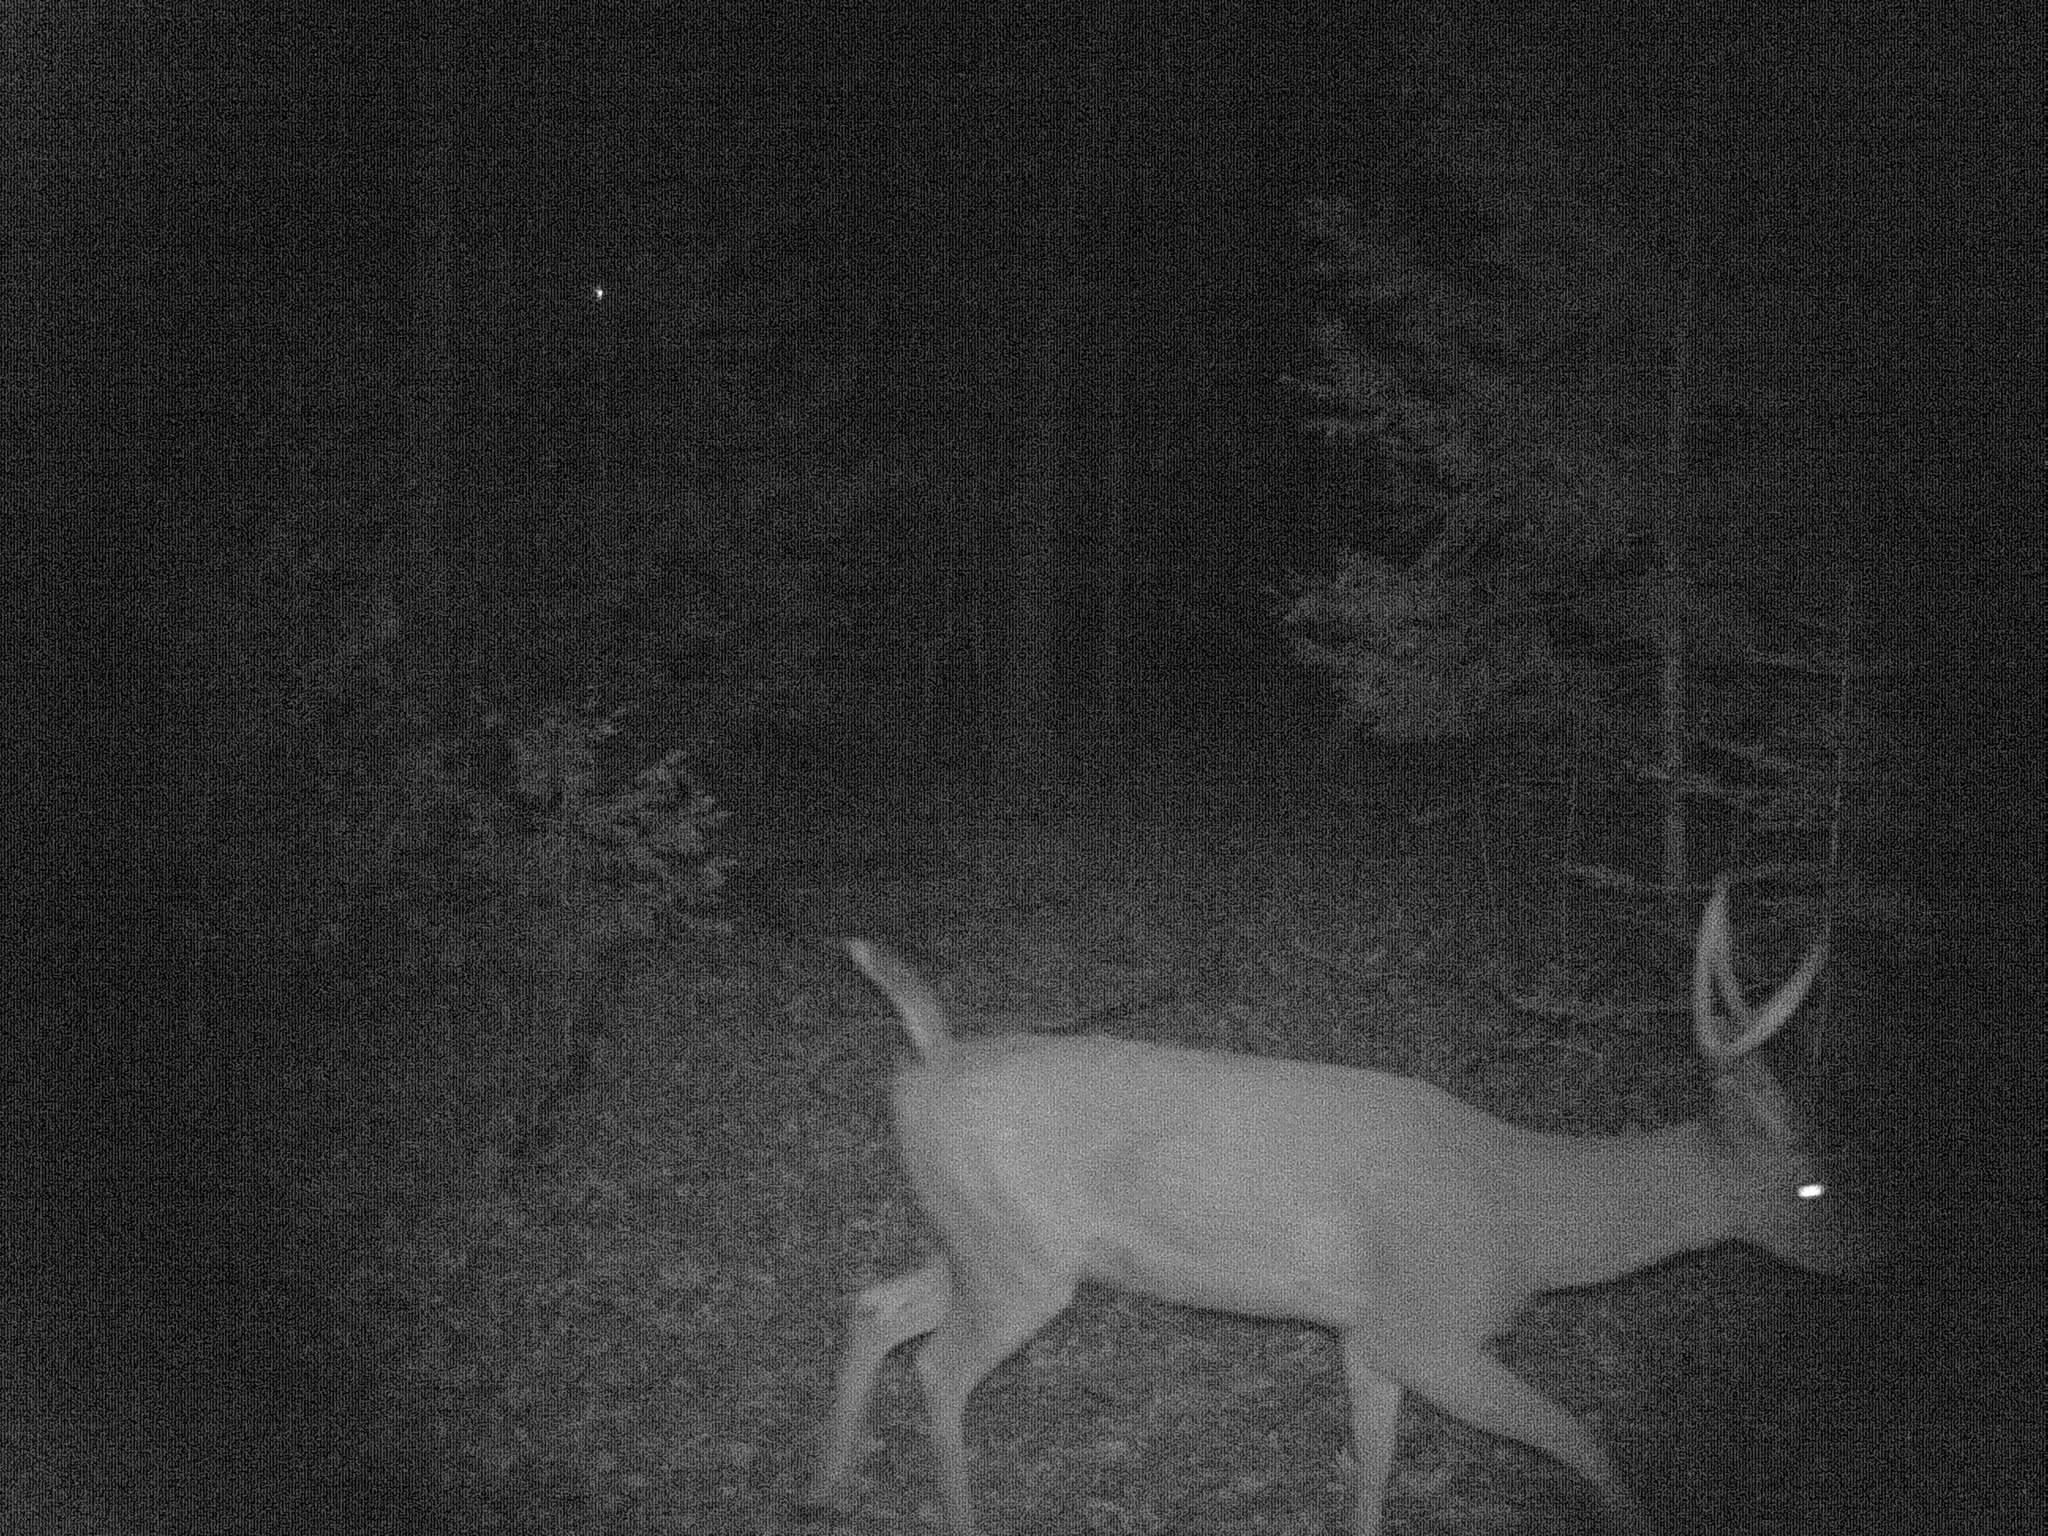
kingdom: Animalia
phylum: Chordata
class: Mammalia
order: Artiodactyla
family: Cervidae
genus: Odocoileus
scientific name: Odocoileus hemionus
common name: Mule deer
